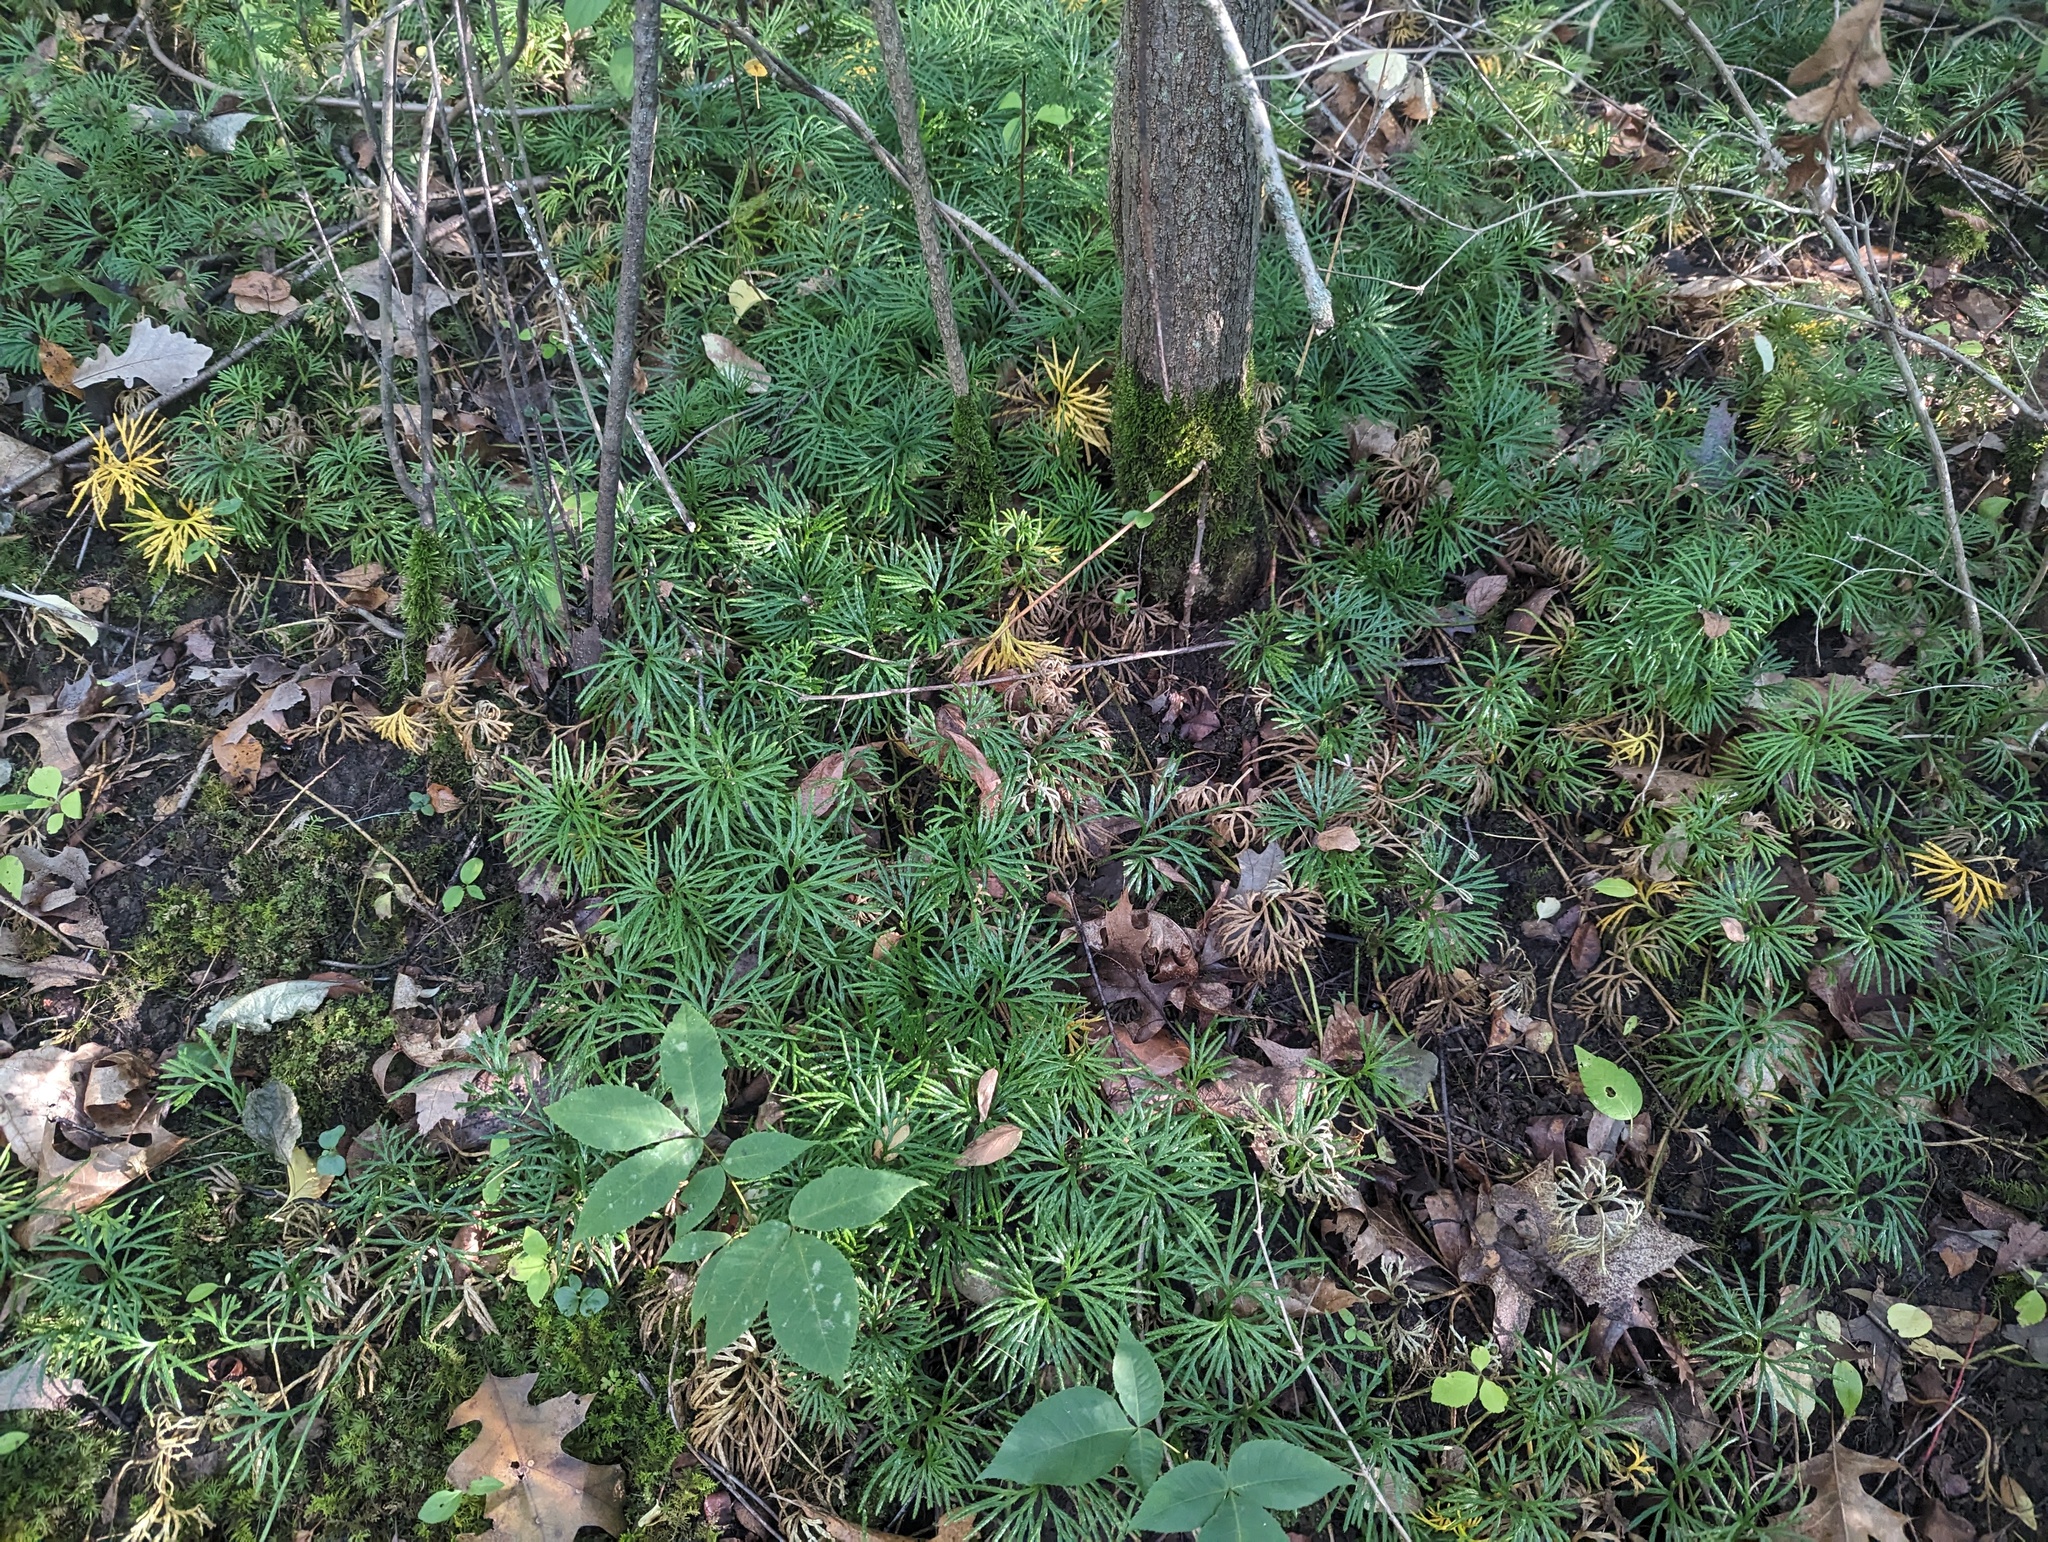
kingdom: Plantae
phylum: Tracheophyta
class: Lycopodiopsida
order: Lycopodiales
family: Lycopodiaceae
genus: Diphasiastrum
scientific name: Diphasiastrum digitatum
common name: Southern running-pine
